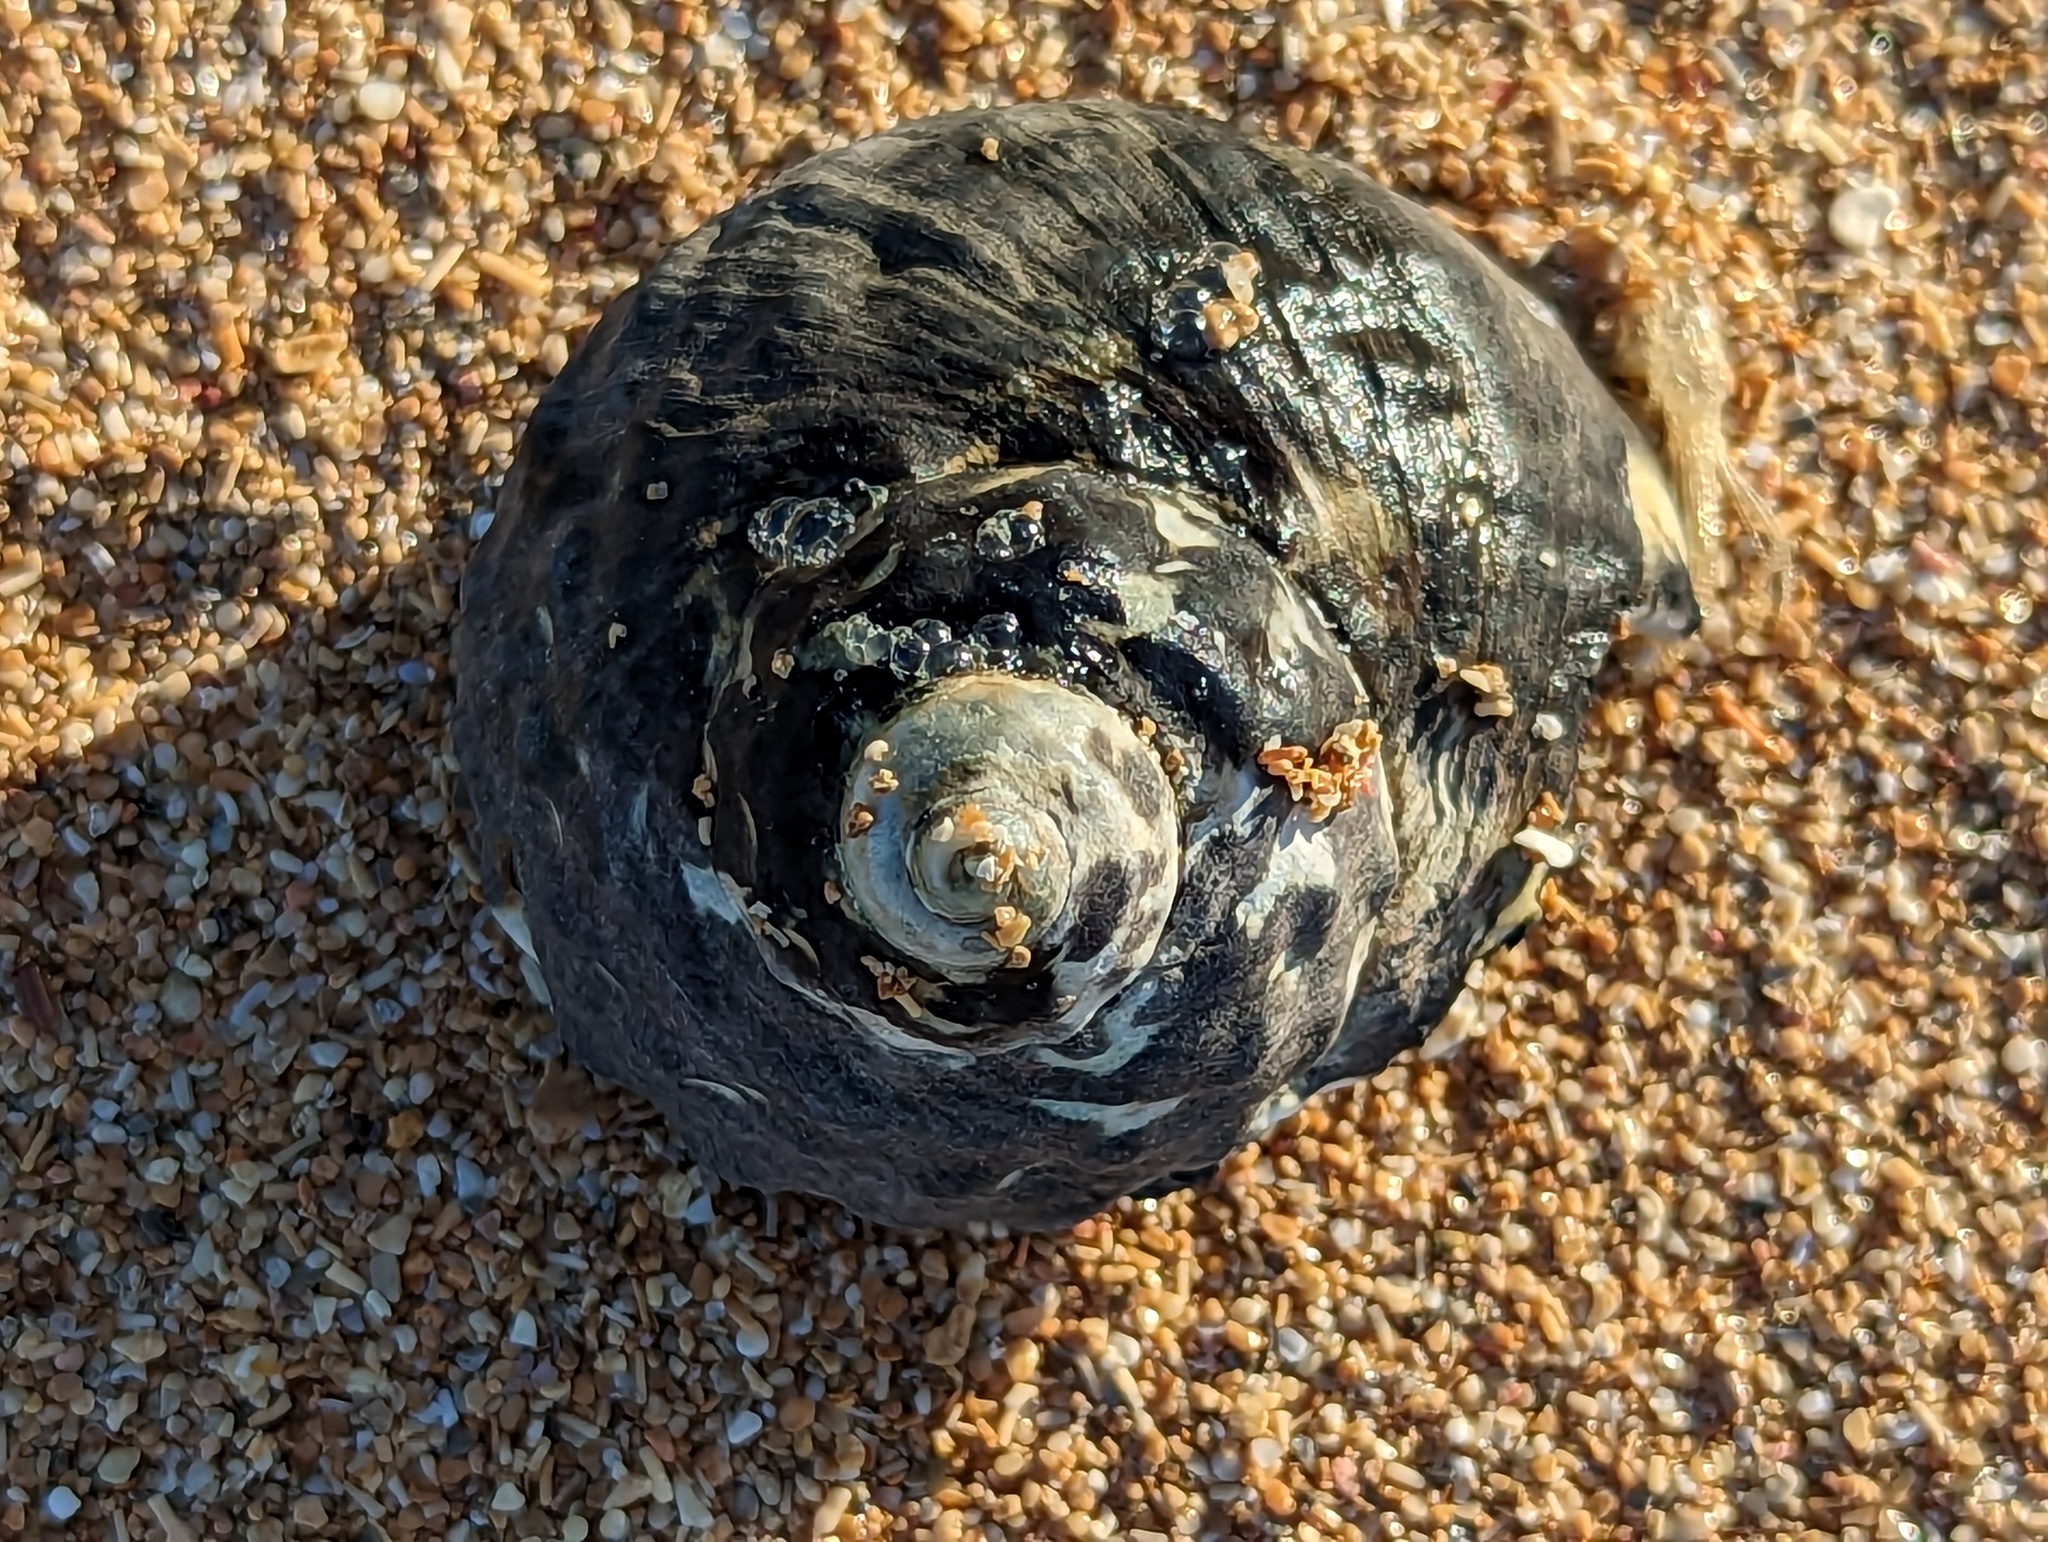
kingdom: Animalia
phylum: Mollusca
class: Gastropoda
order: Trochida
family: Tegulidae
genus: Cittarium
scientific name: Cittarium pica
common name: West indian topshell
